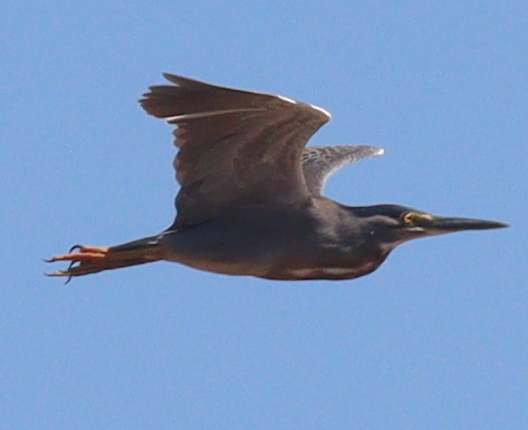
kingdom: Animalia
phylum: Chordata
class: Aves
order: Pelecaniformes
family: Ardeidae
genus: Butorides
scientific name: Butorides striata
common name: Striated heron
